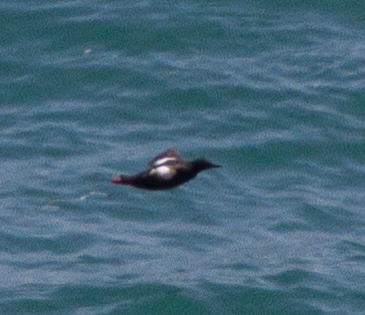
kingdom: Animalia
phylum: Chordata
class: Aves
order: Charadriiformes
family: Alcidae
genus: Cepphus
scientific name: Cepphus columba
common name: Pigeon guillemot
